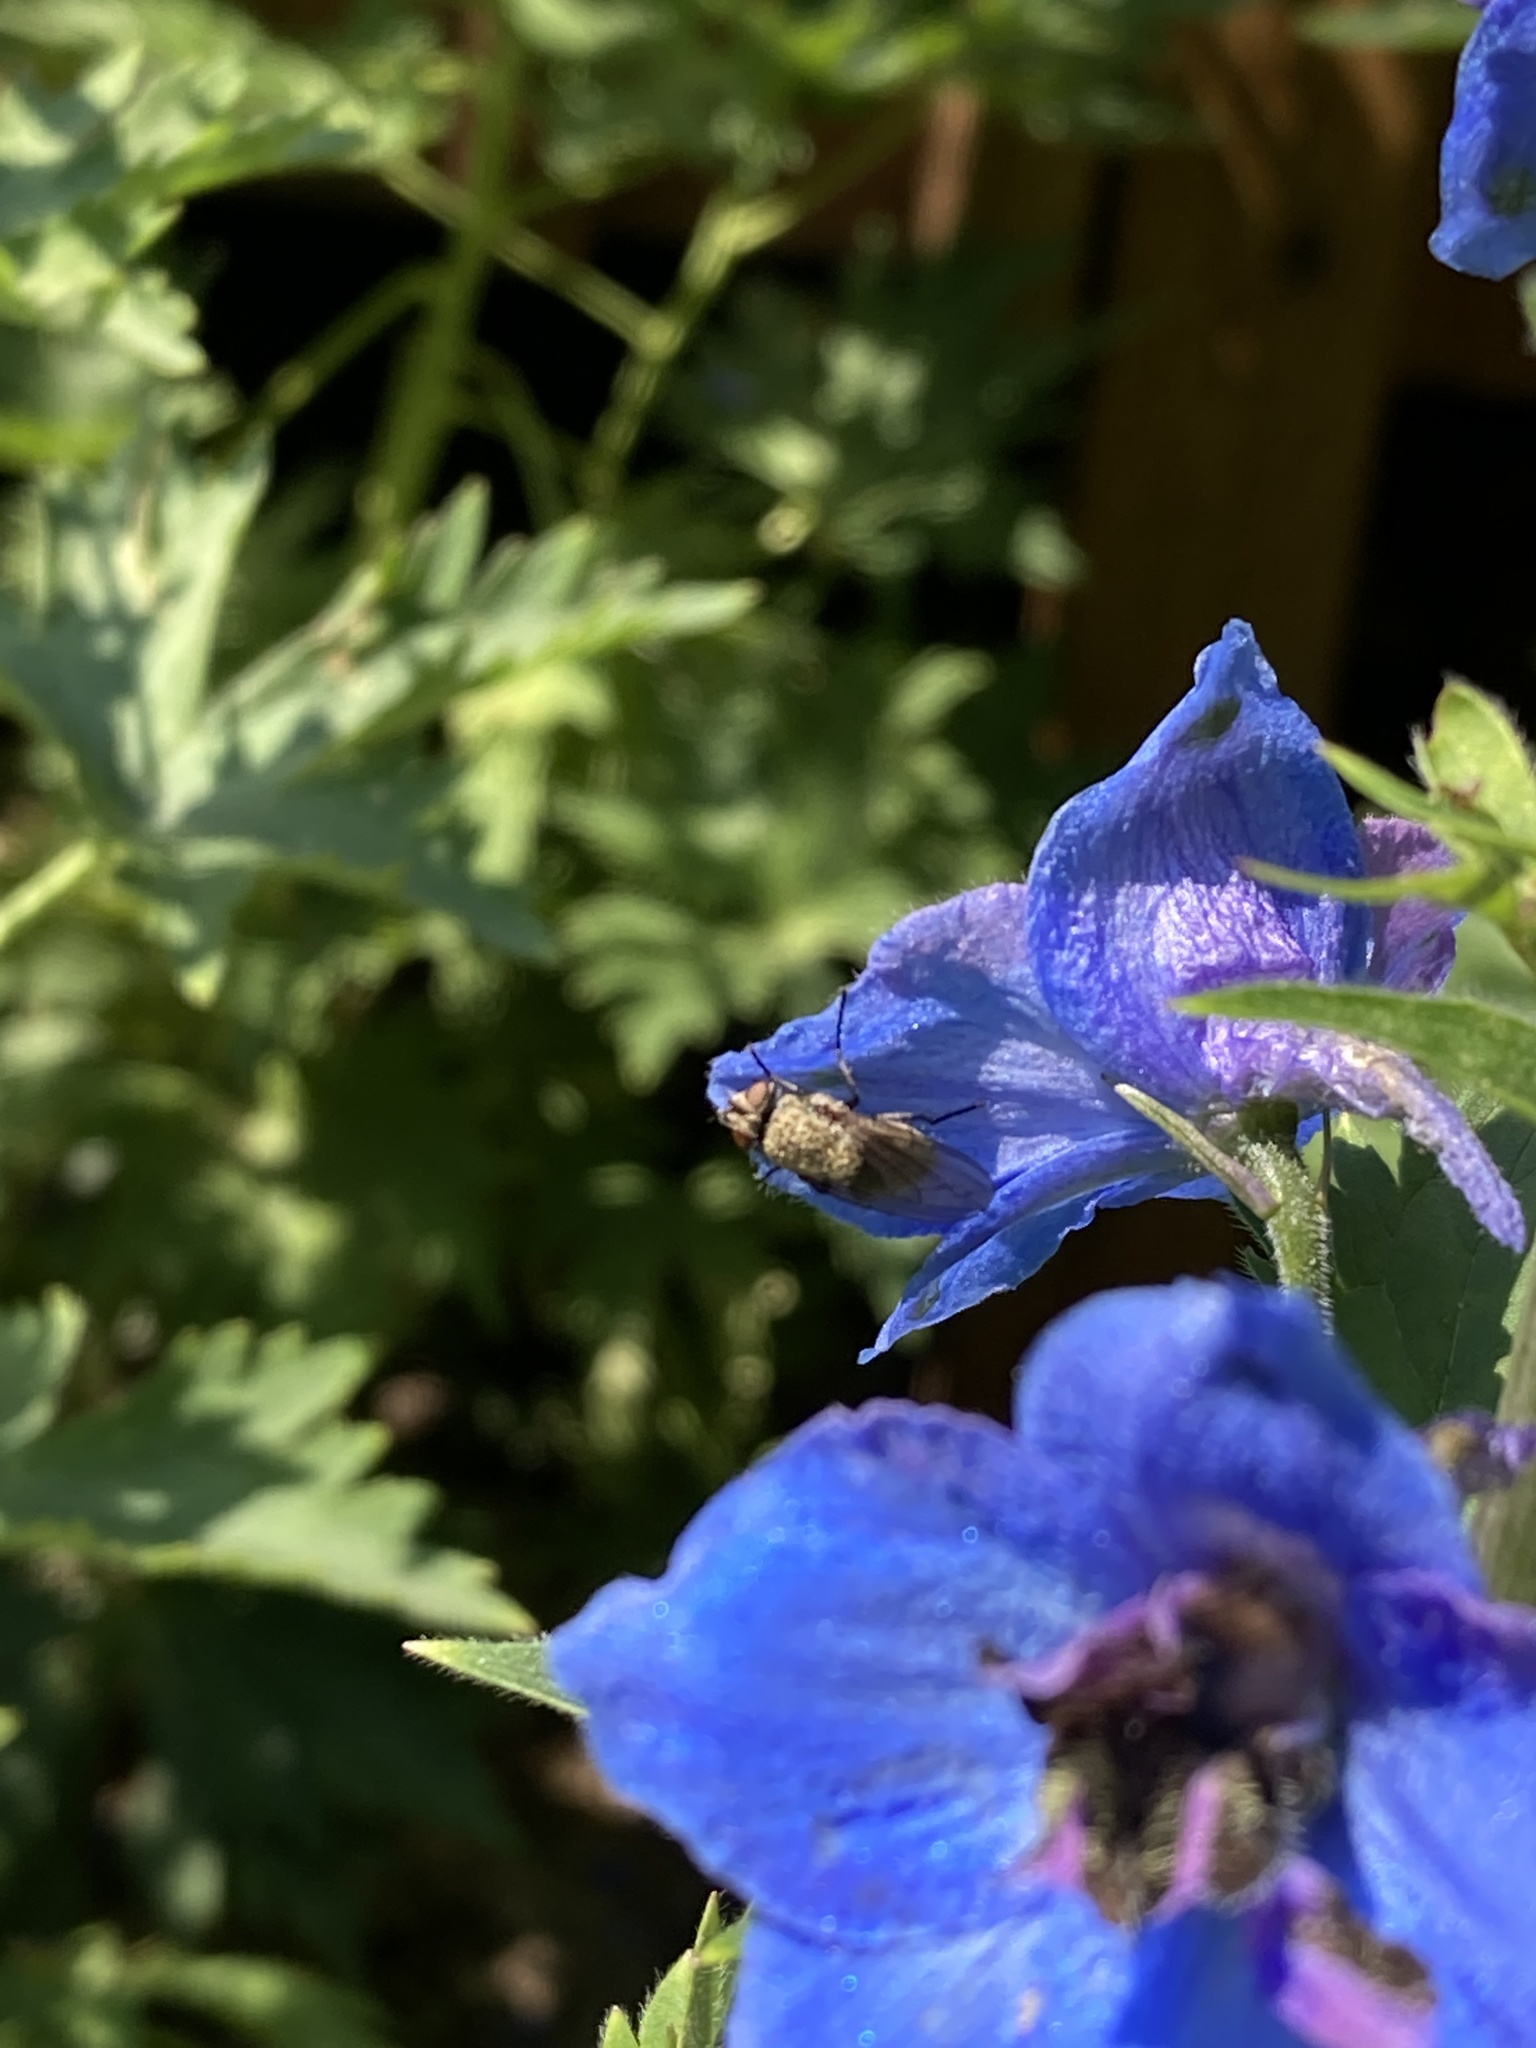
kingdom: Animalia
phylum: Arthropoda
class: Insecta
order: Diptera
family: Polleniidae
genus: Pollenia
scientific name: Pollenia
